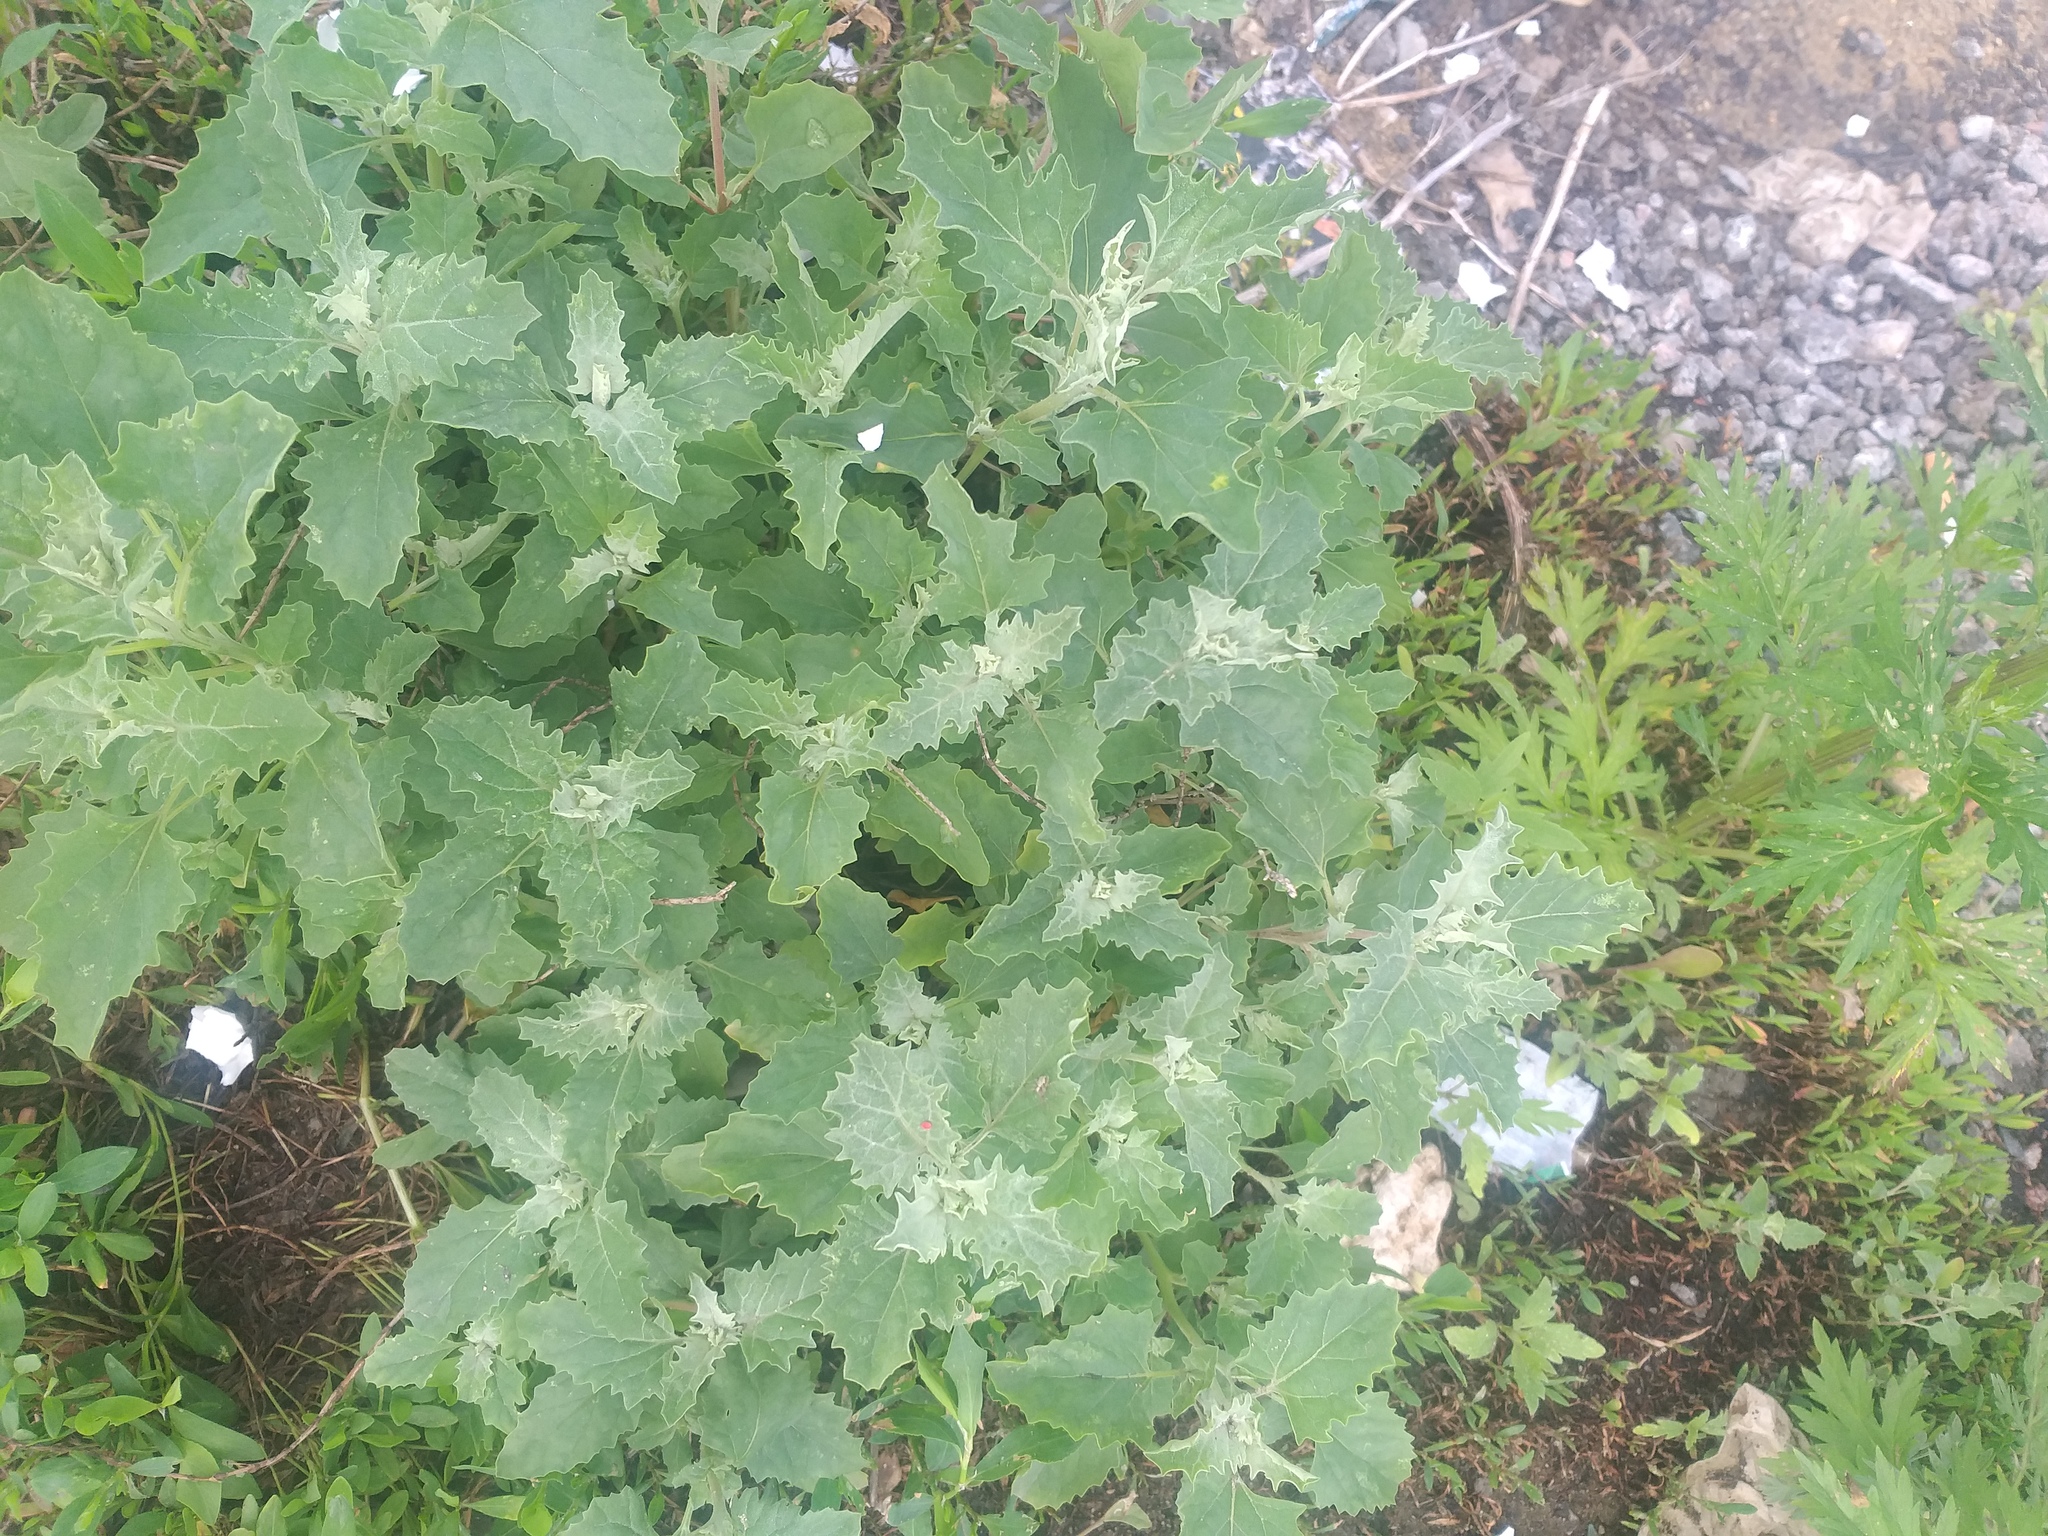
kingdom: Plantae
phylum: Tracheophyta
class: Magnoliopsida
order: Caryophyllales
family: Amaranthaceae
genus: Atriplex
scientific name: Atriplex tatarica
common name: Tatarian orache
